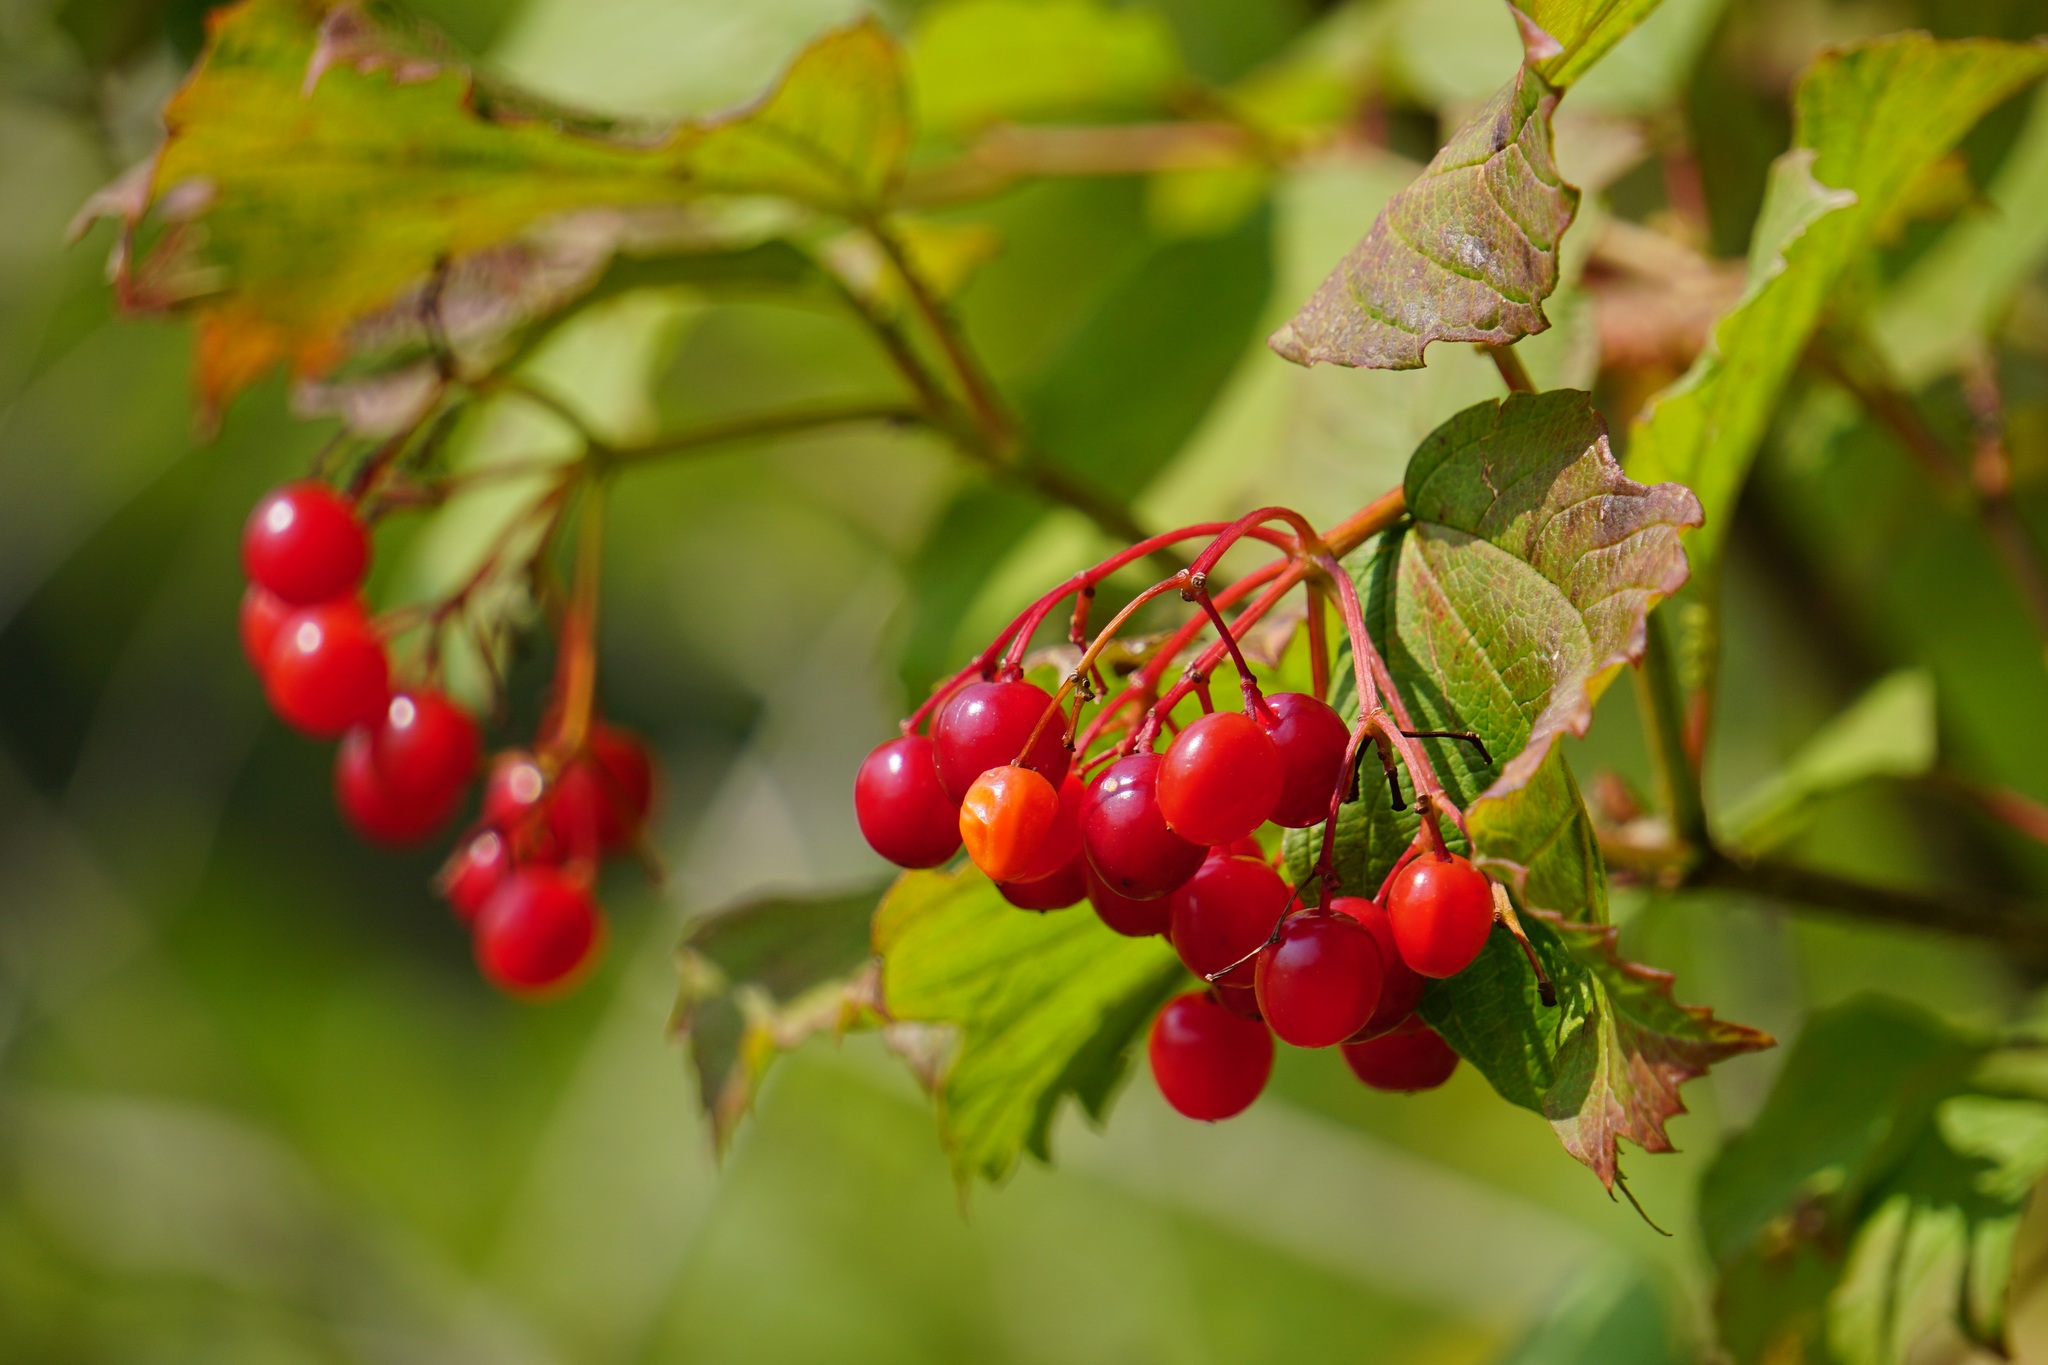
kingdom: Plantae
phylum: Tracheophyta
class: Magnoliopsida
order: Dipsacales
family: Viburnaceae
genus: Viburnum
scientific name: Viburnum opulus
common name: Guelder-rose
